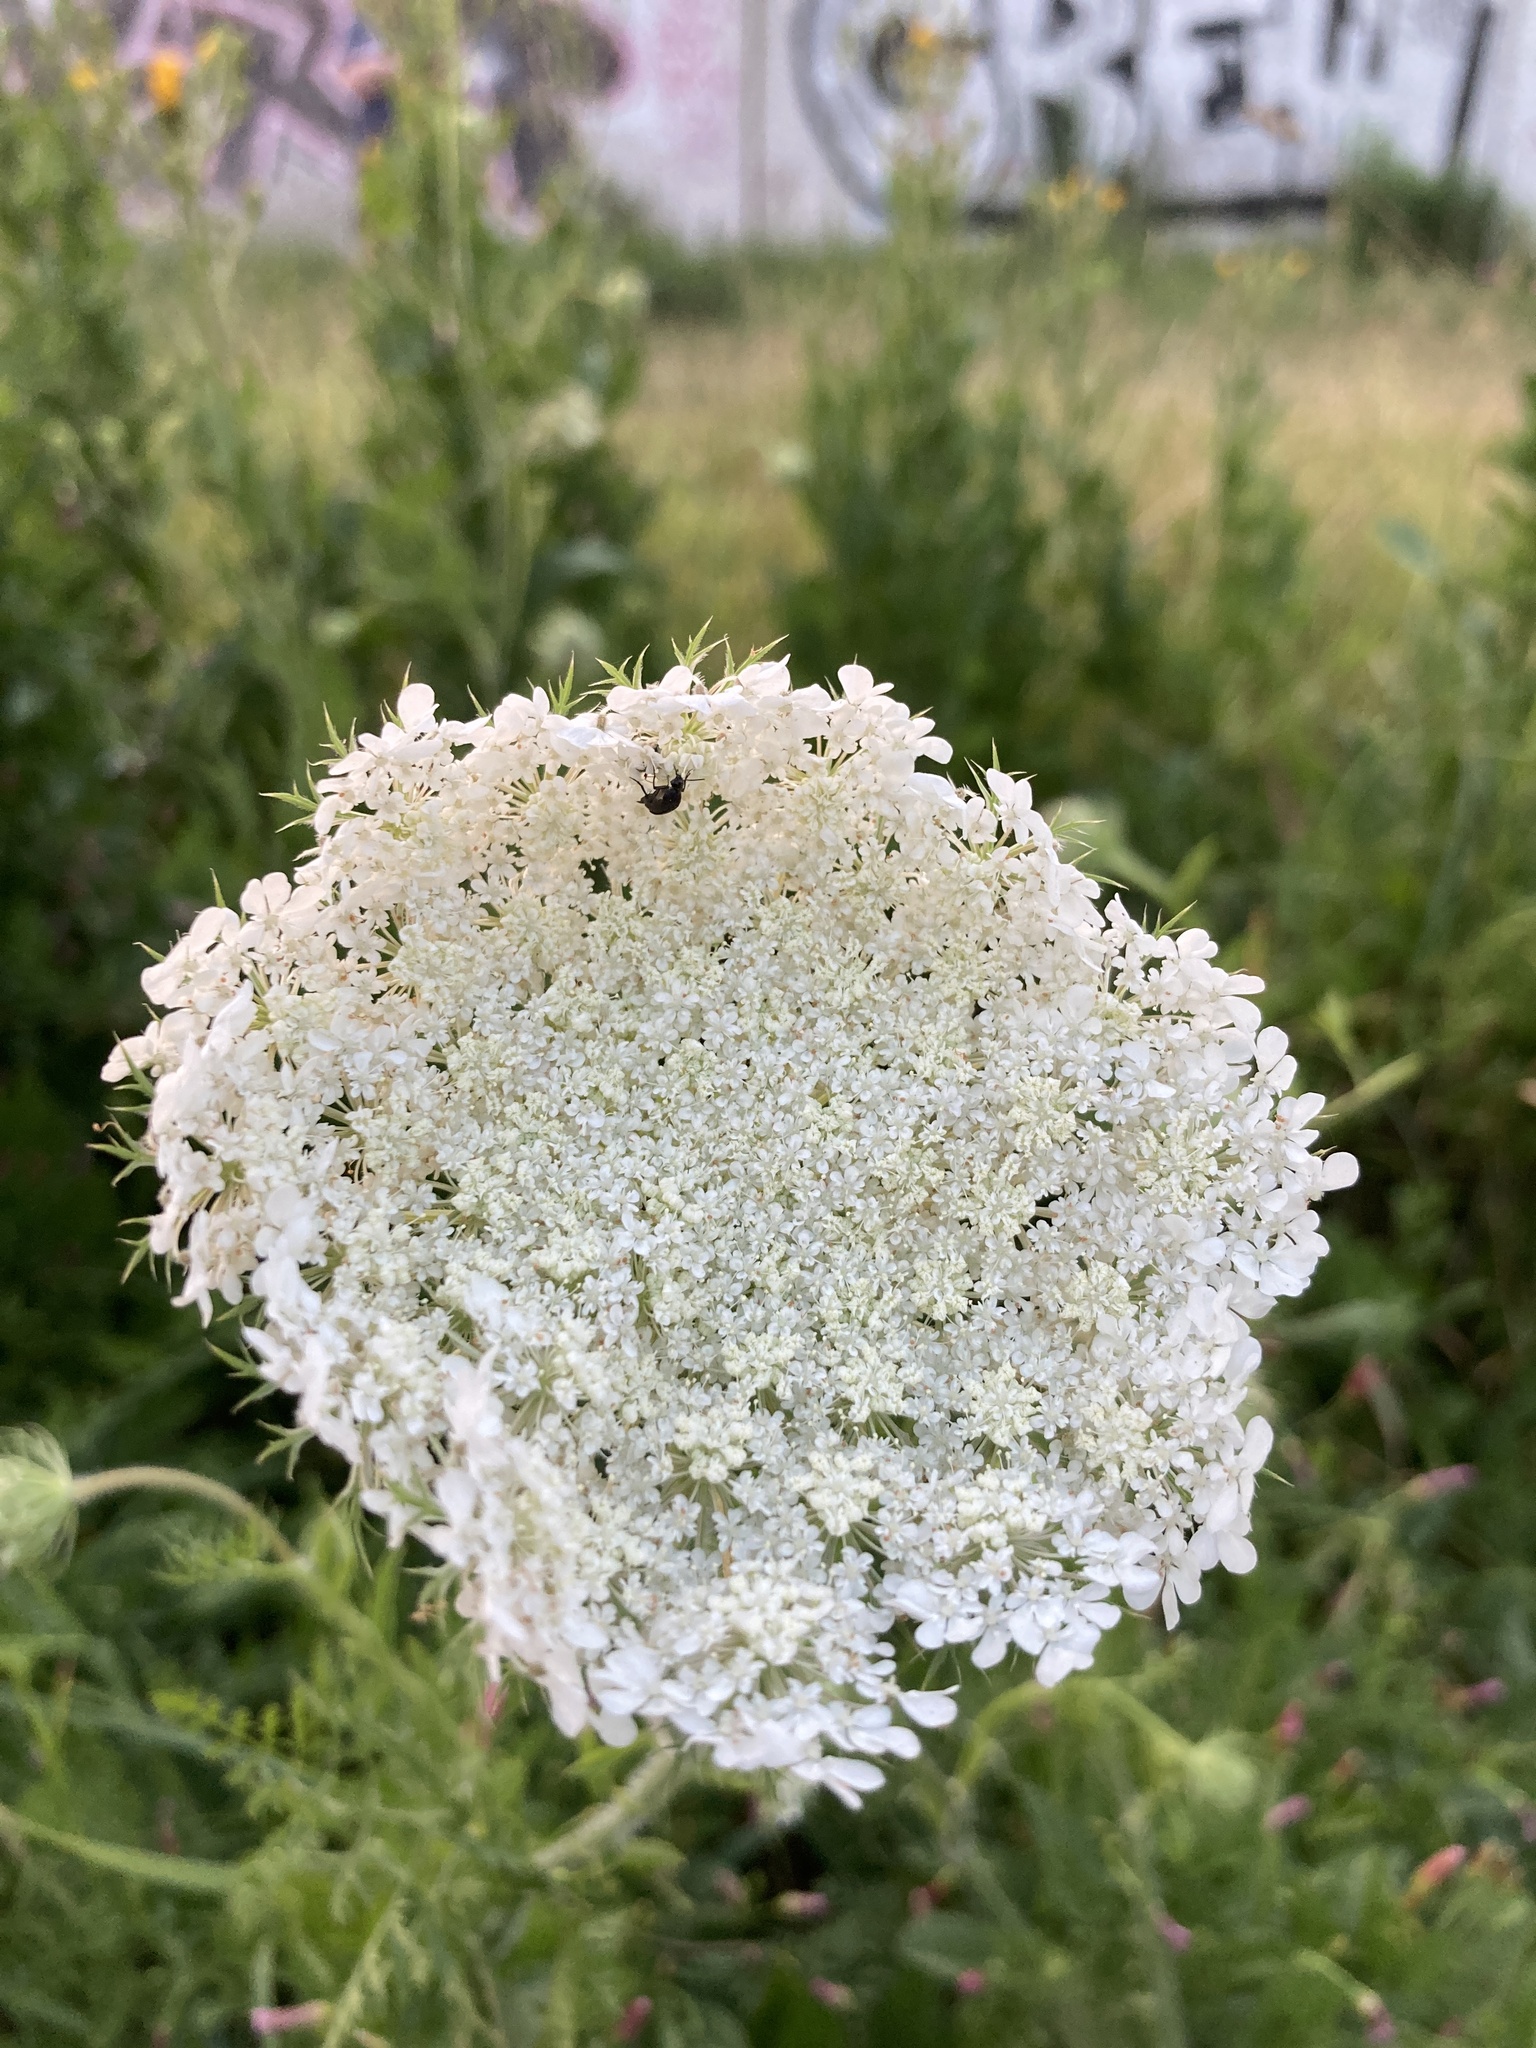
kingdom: Plantae
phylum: Tracheophyta
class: Magnoliopsida
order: Apiales
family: Apiaceae
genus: Daucus
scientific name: Daucus carota
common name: Wild carrot
